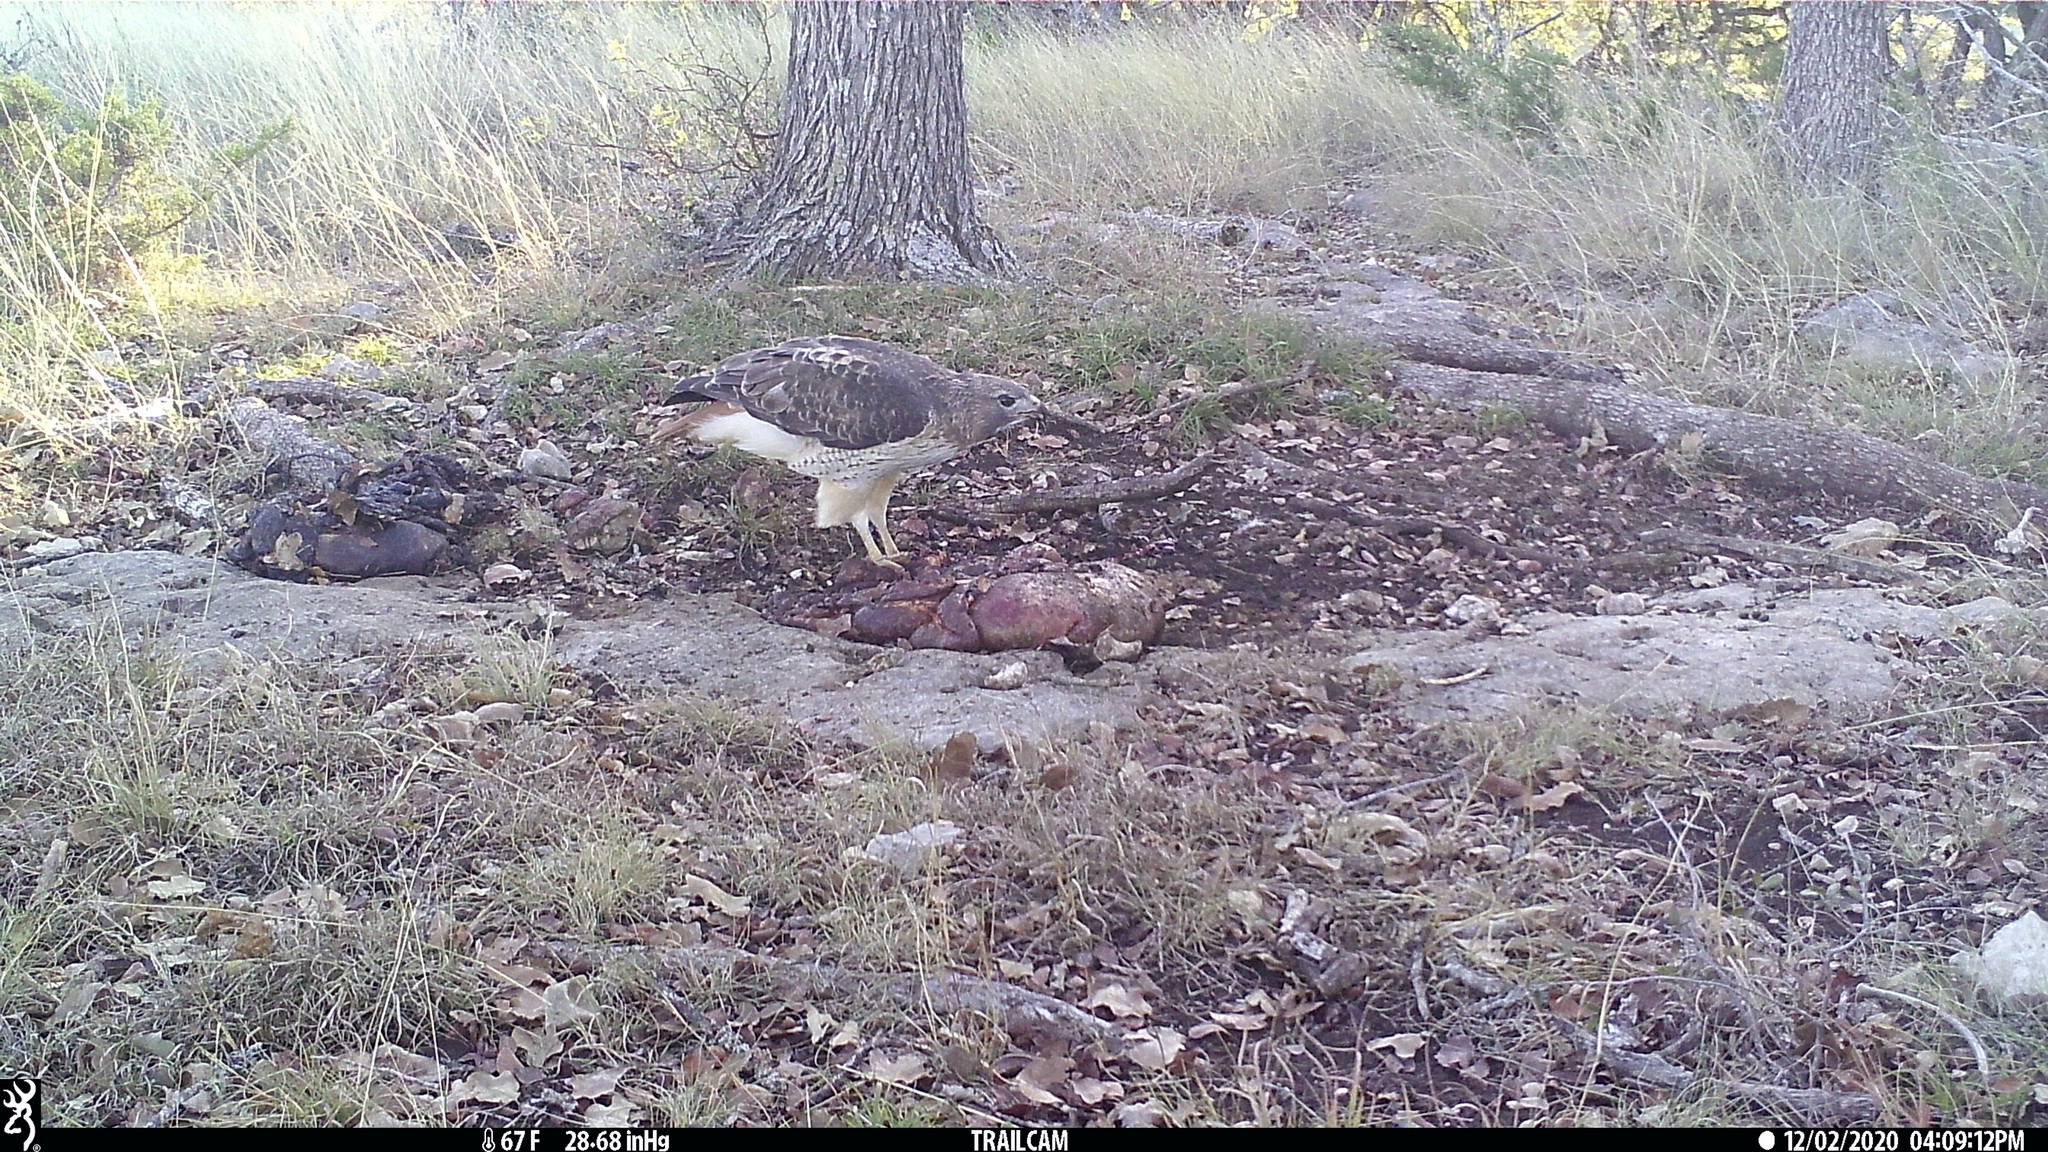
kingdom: Animalia
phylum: Chordata
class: Aves
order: Accipitriformes
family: Accipitridae
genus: Buteo
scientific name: Buteo jamaicensis
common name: Red-tailed hawk
